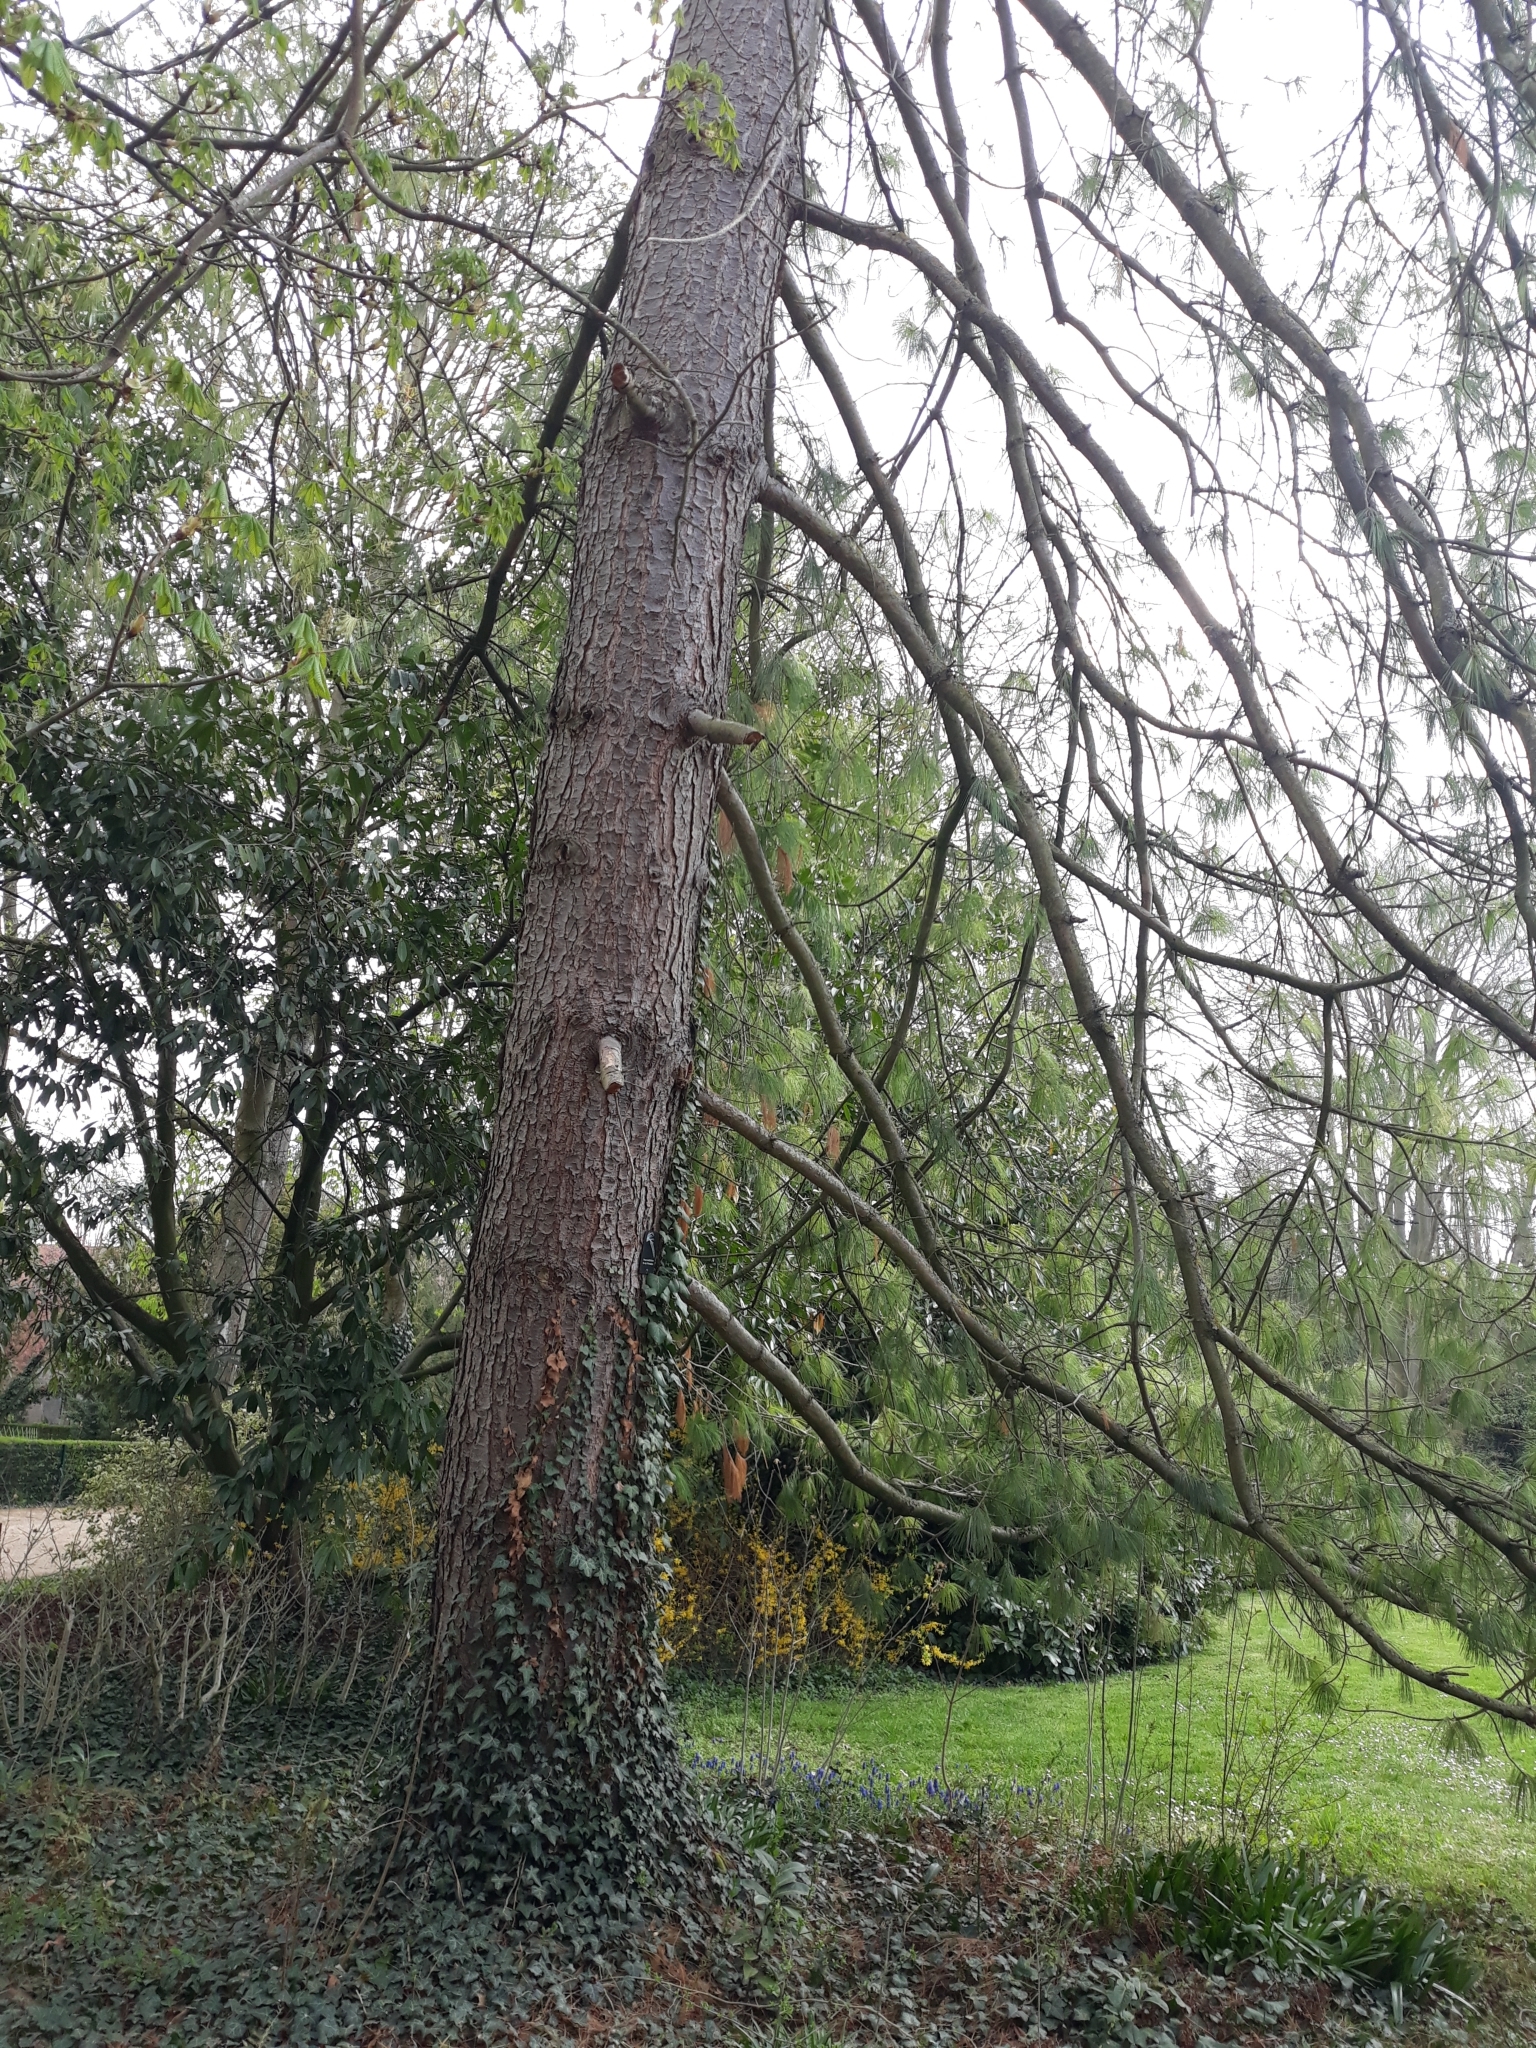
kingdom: Plantae
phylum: Tracheophyta
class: Pinopsida
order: Pinales
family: Pinaceae
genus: Pinus
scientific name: Pinus wallichiana
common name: Bhutan pine
